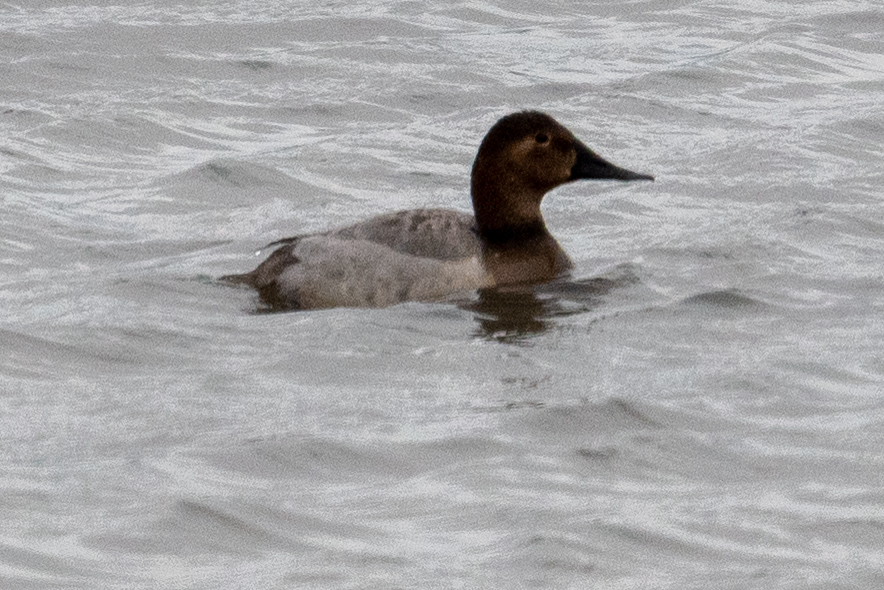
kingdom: Animalia
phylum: Chordata
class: Aves
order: Anseriformes
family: Anatidae
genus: Aythya
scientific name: Aythya valisineria
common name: Canvasback
